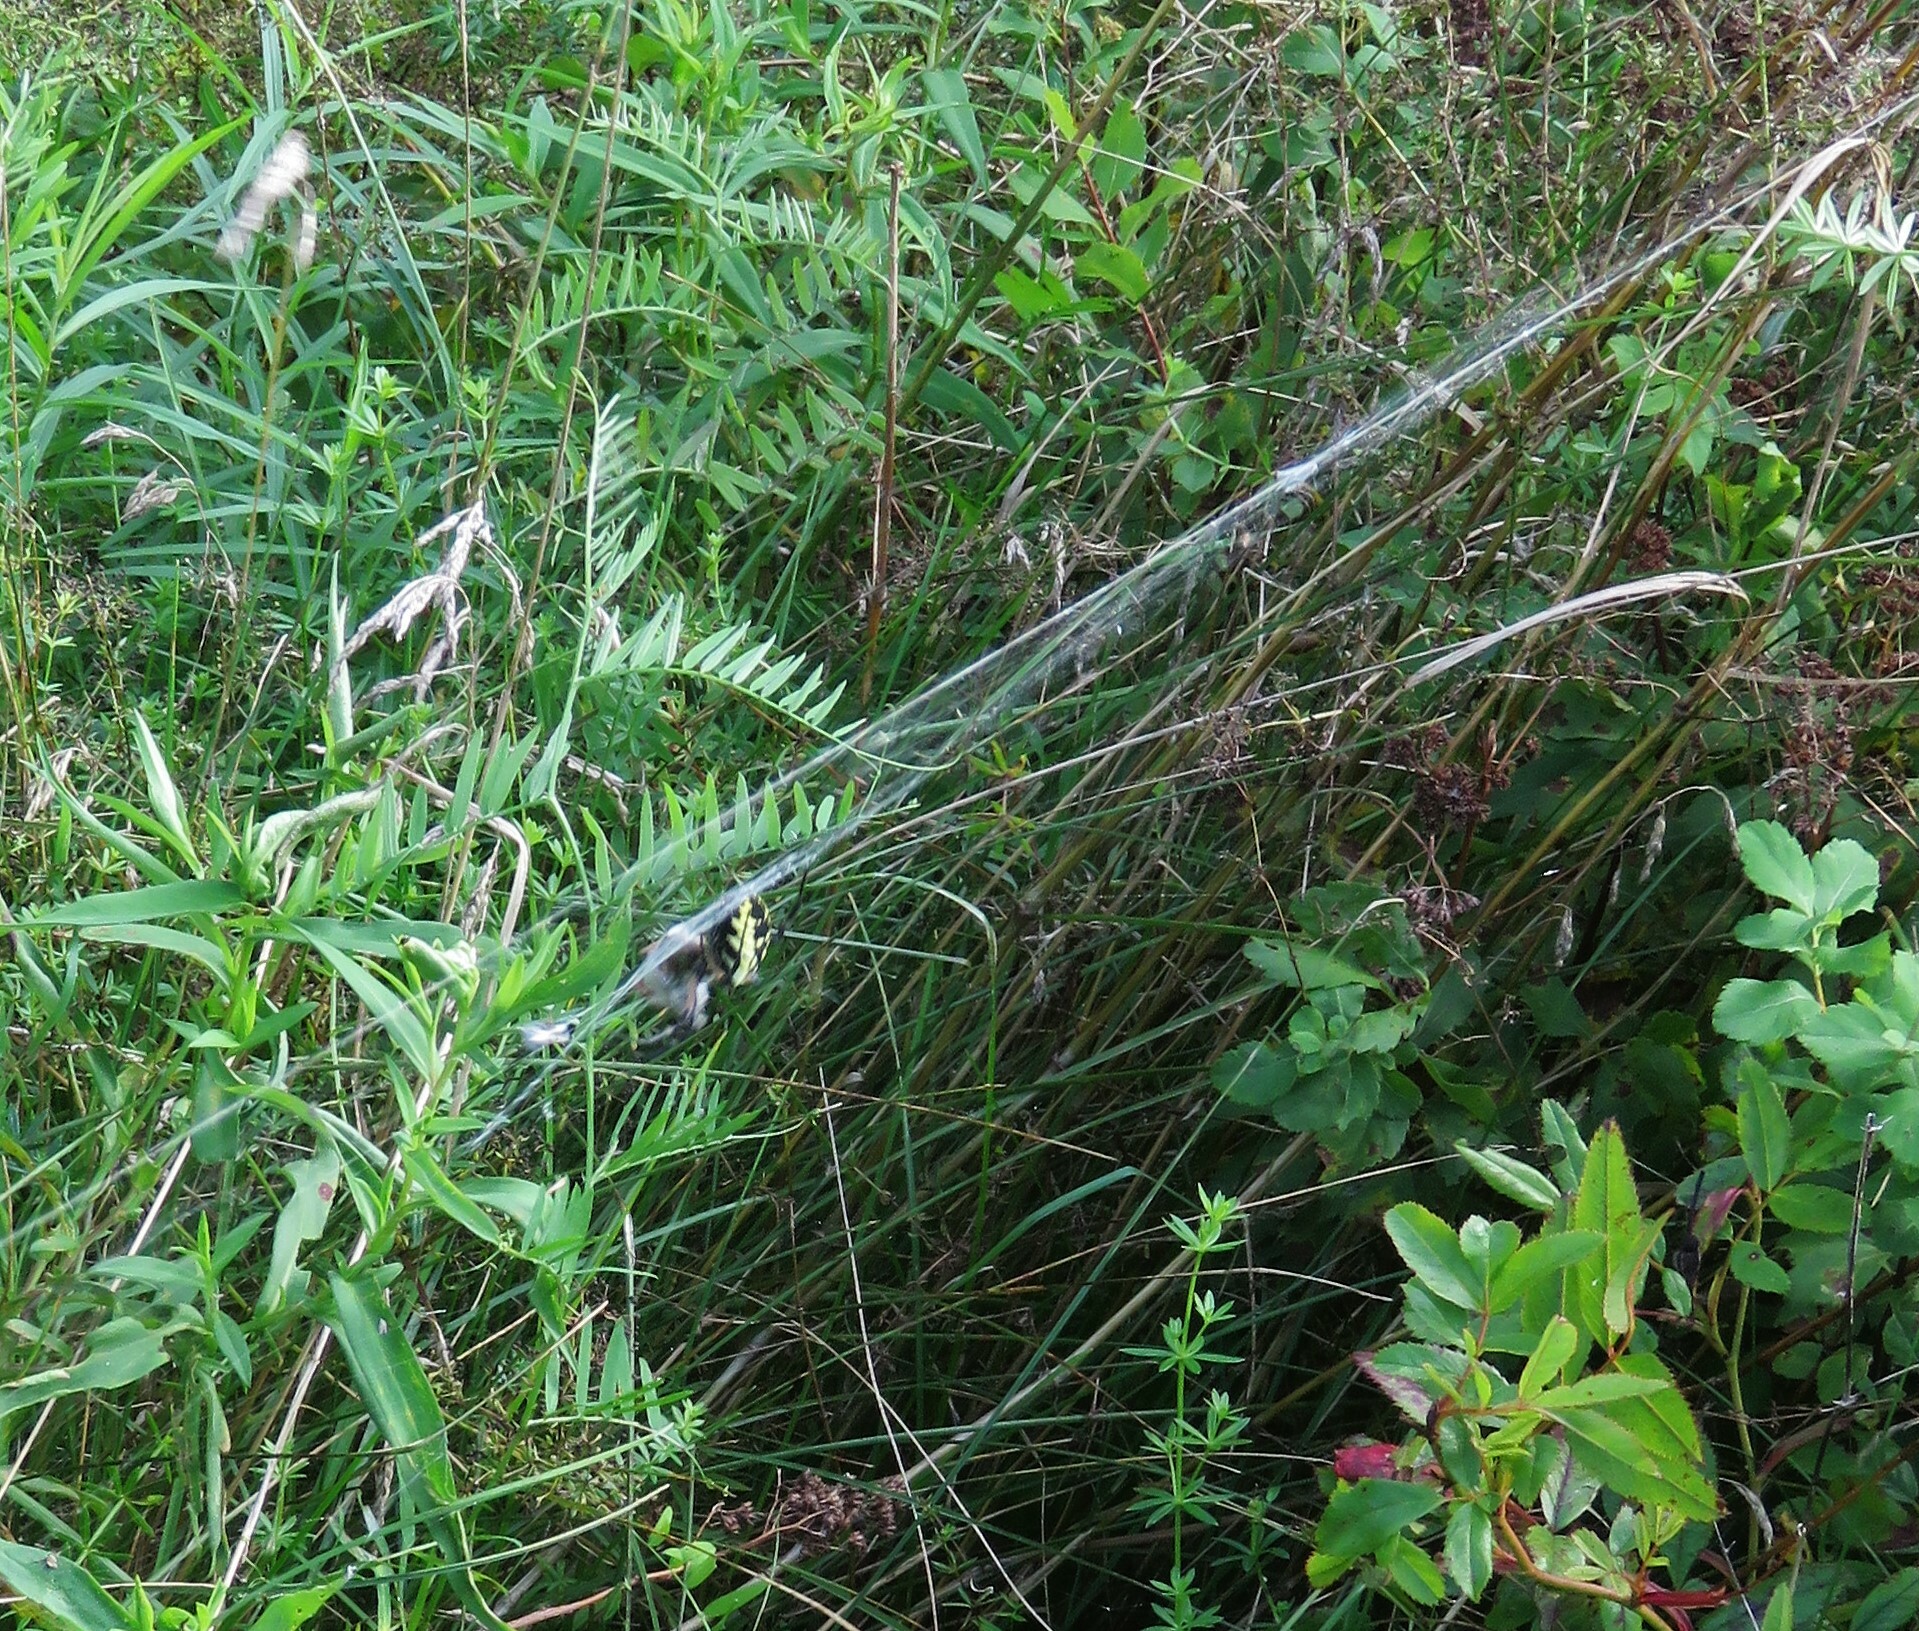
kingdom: Animalia
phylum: Arthropoda
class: Arachnida
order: Araneae
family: Araneidae
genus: Argiope
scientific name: Argiope aurantia
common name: Orb weavers
